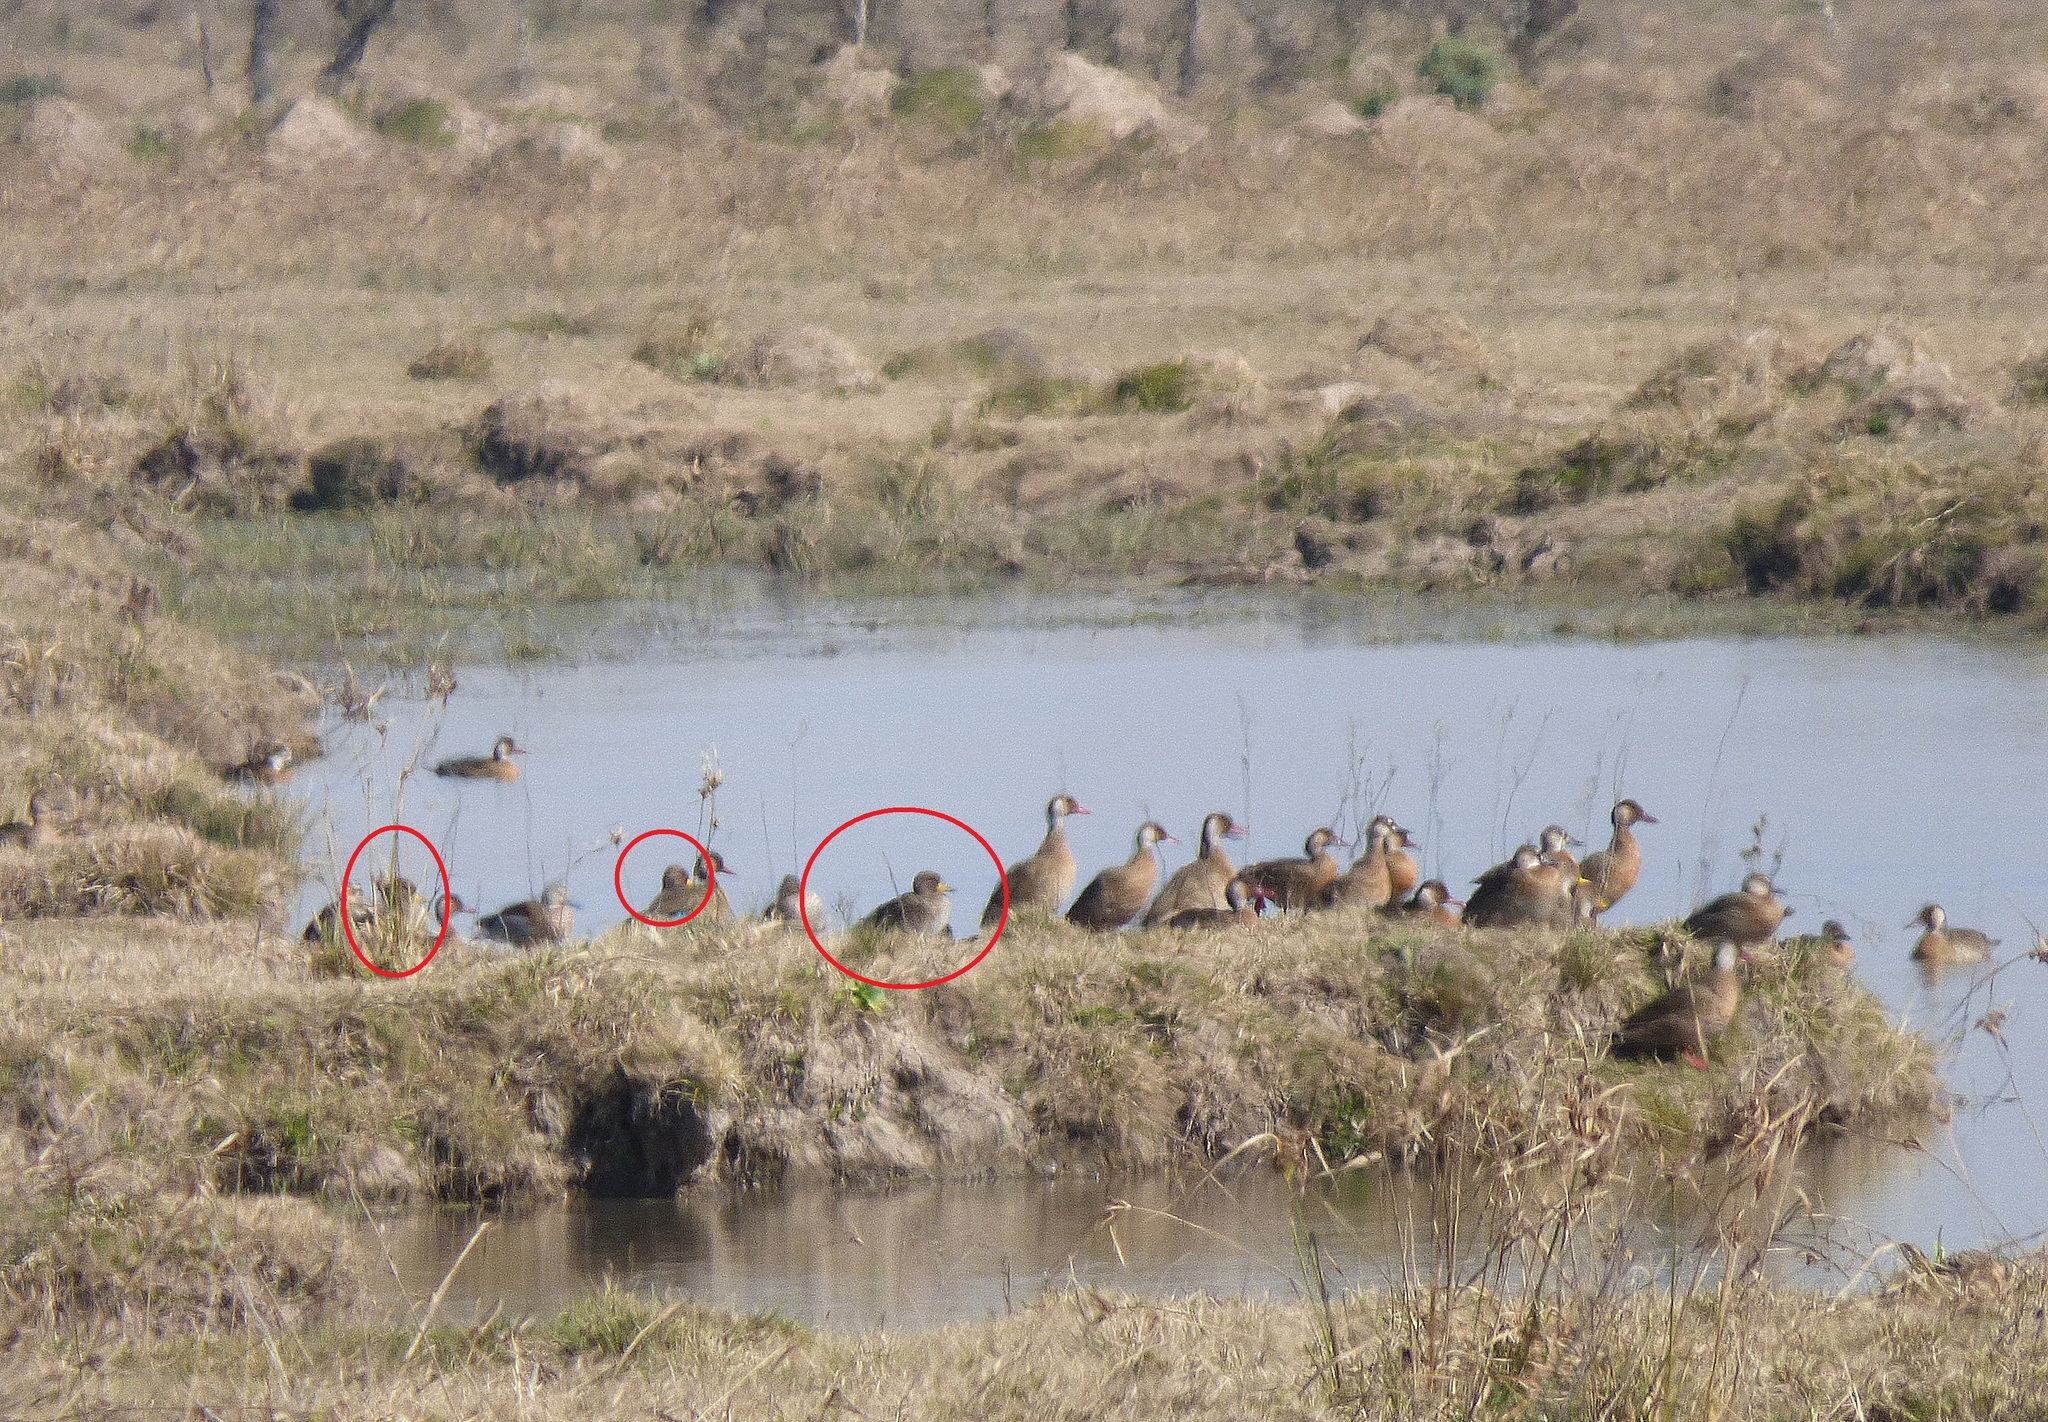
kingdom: Animalia
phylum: Chordata
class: Aves
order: Anseriformes
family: Anatidae
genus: Anas
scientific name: Anas flavirostris
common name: Yellow-billed teal
